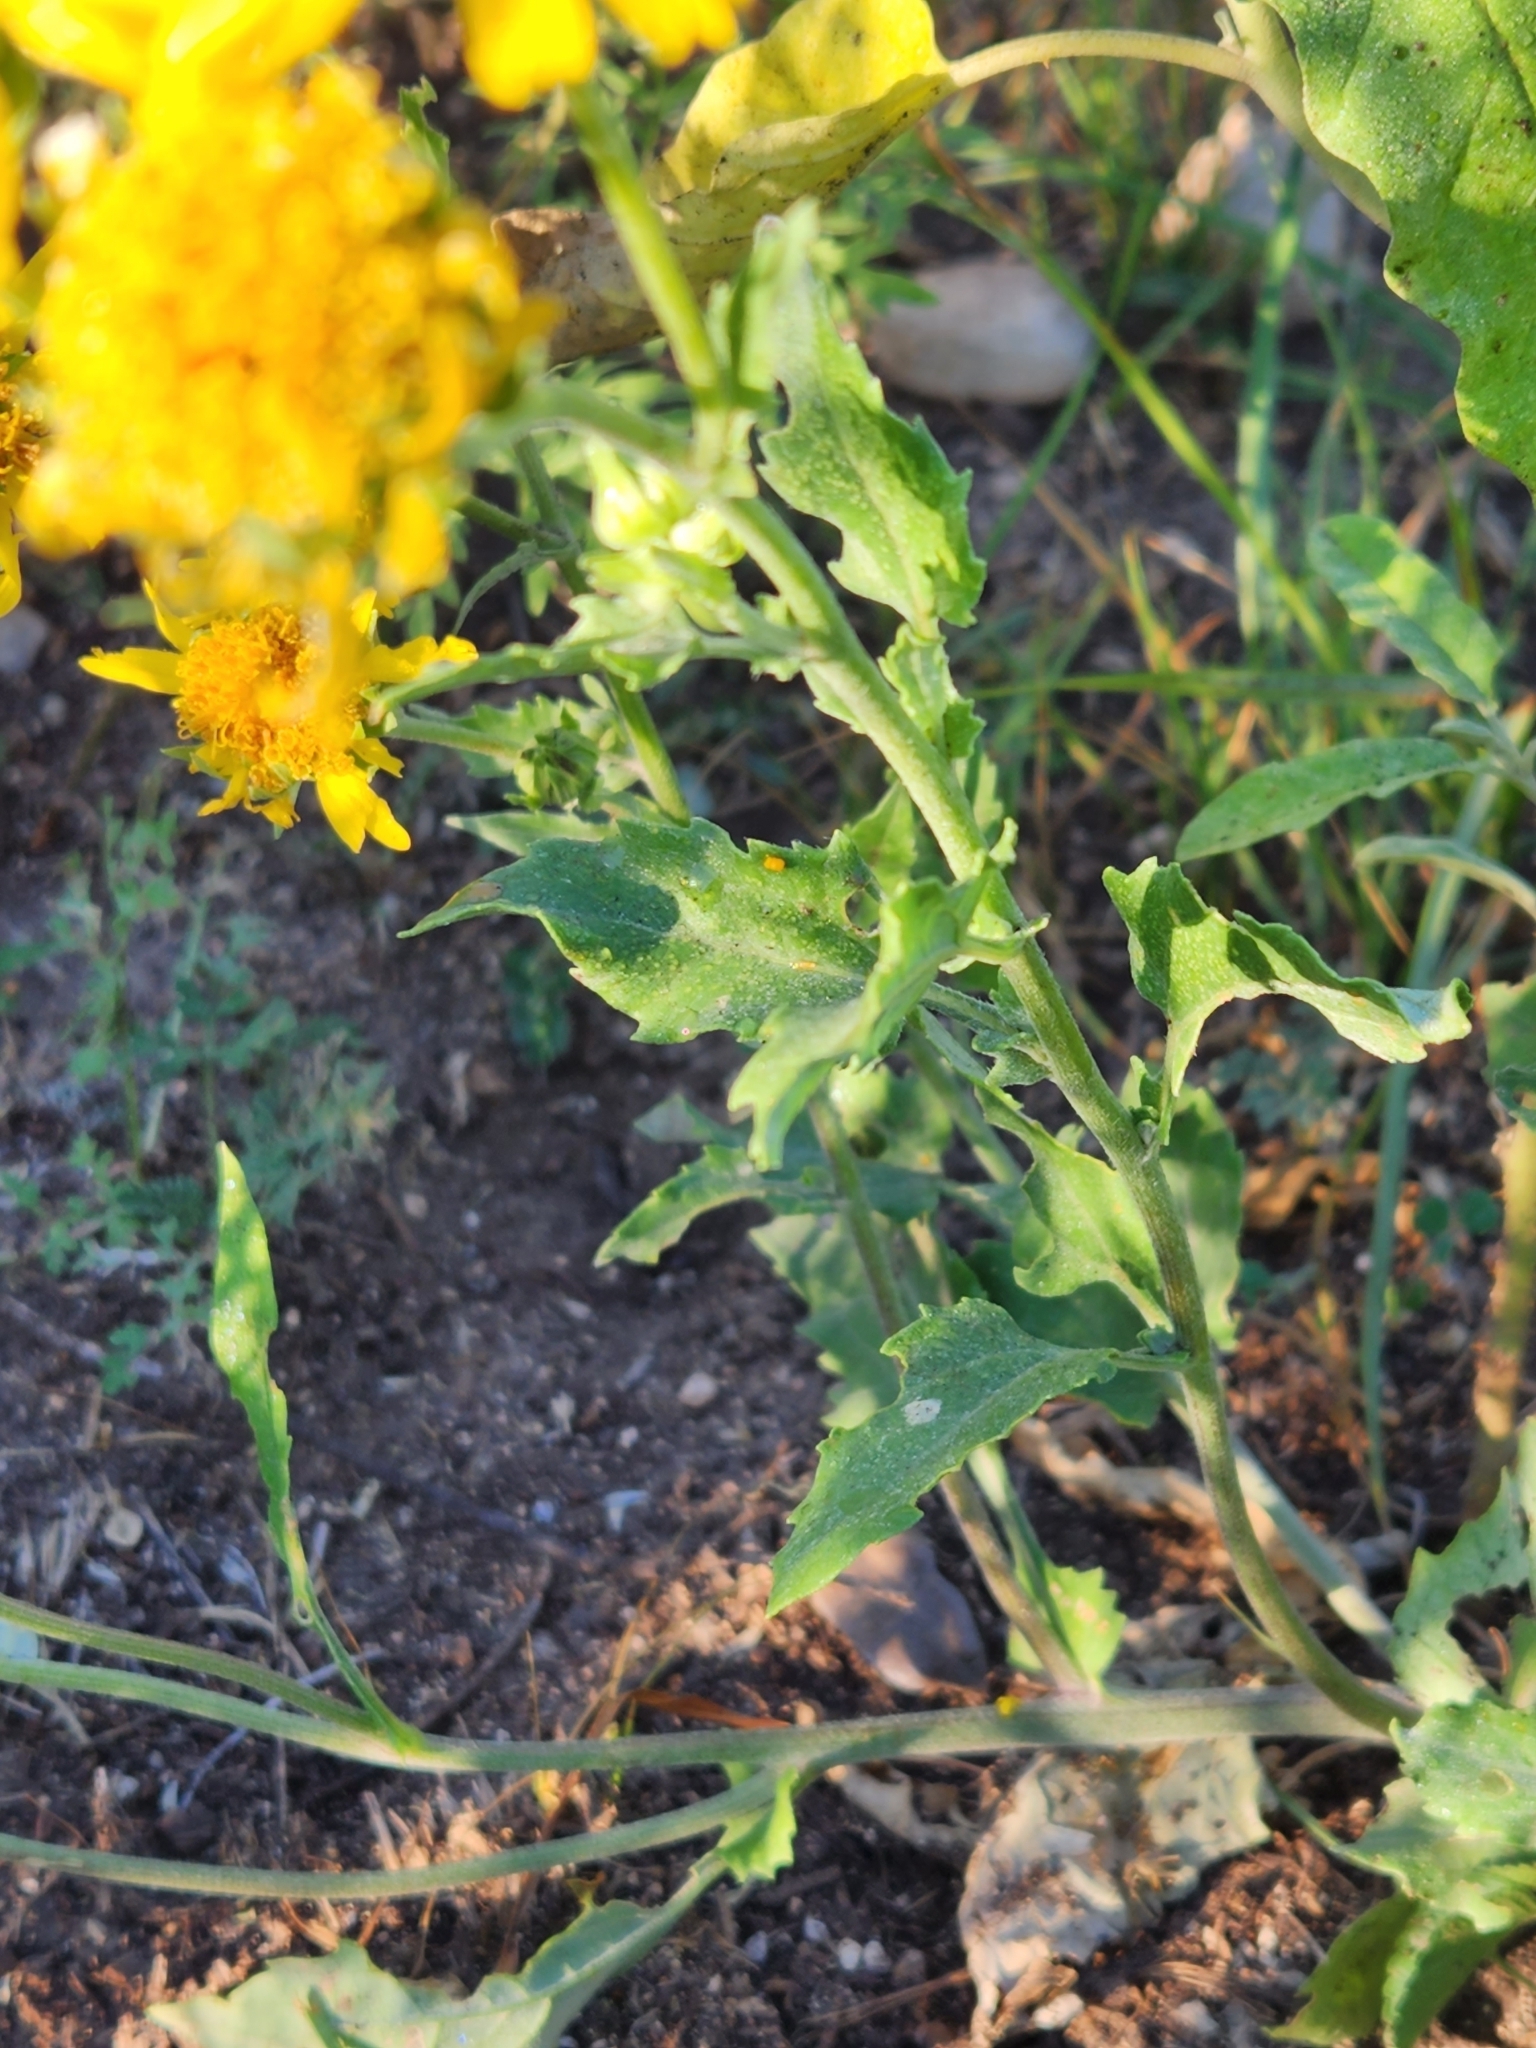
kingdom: Plantae
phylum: Tracheophyta
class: Magnoliopsida
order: Asterales
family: Asteraceae
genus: Verbesina
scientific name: Verbesina encelioides
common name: Golden crownbeard
